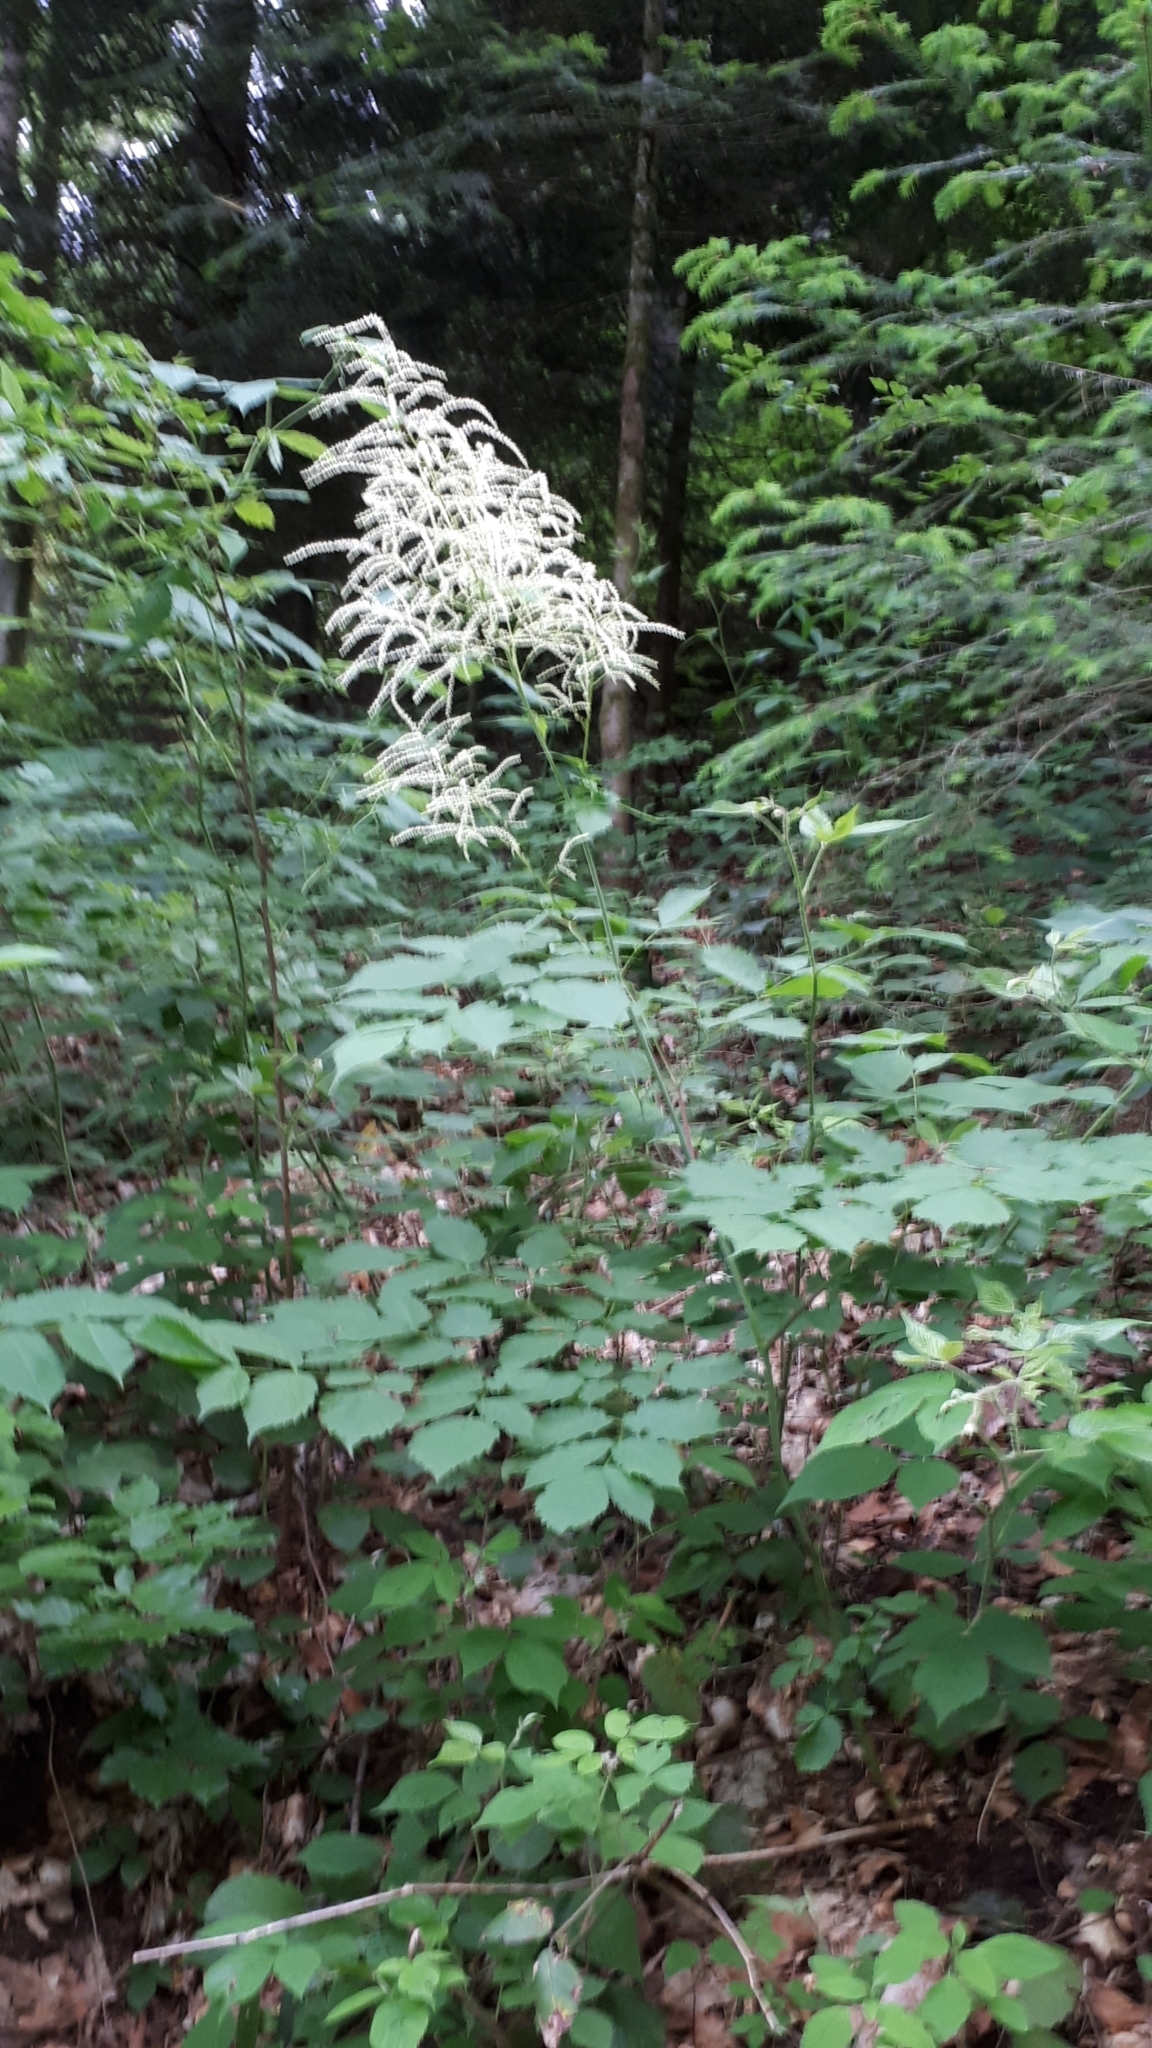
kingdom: Plantae
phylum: Tracheophyta
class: Magnoliopsida
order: Rosales
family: Rosaceae
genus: Aruncus
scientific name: Aruncus dioicus
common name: Buck's-beard
